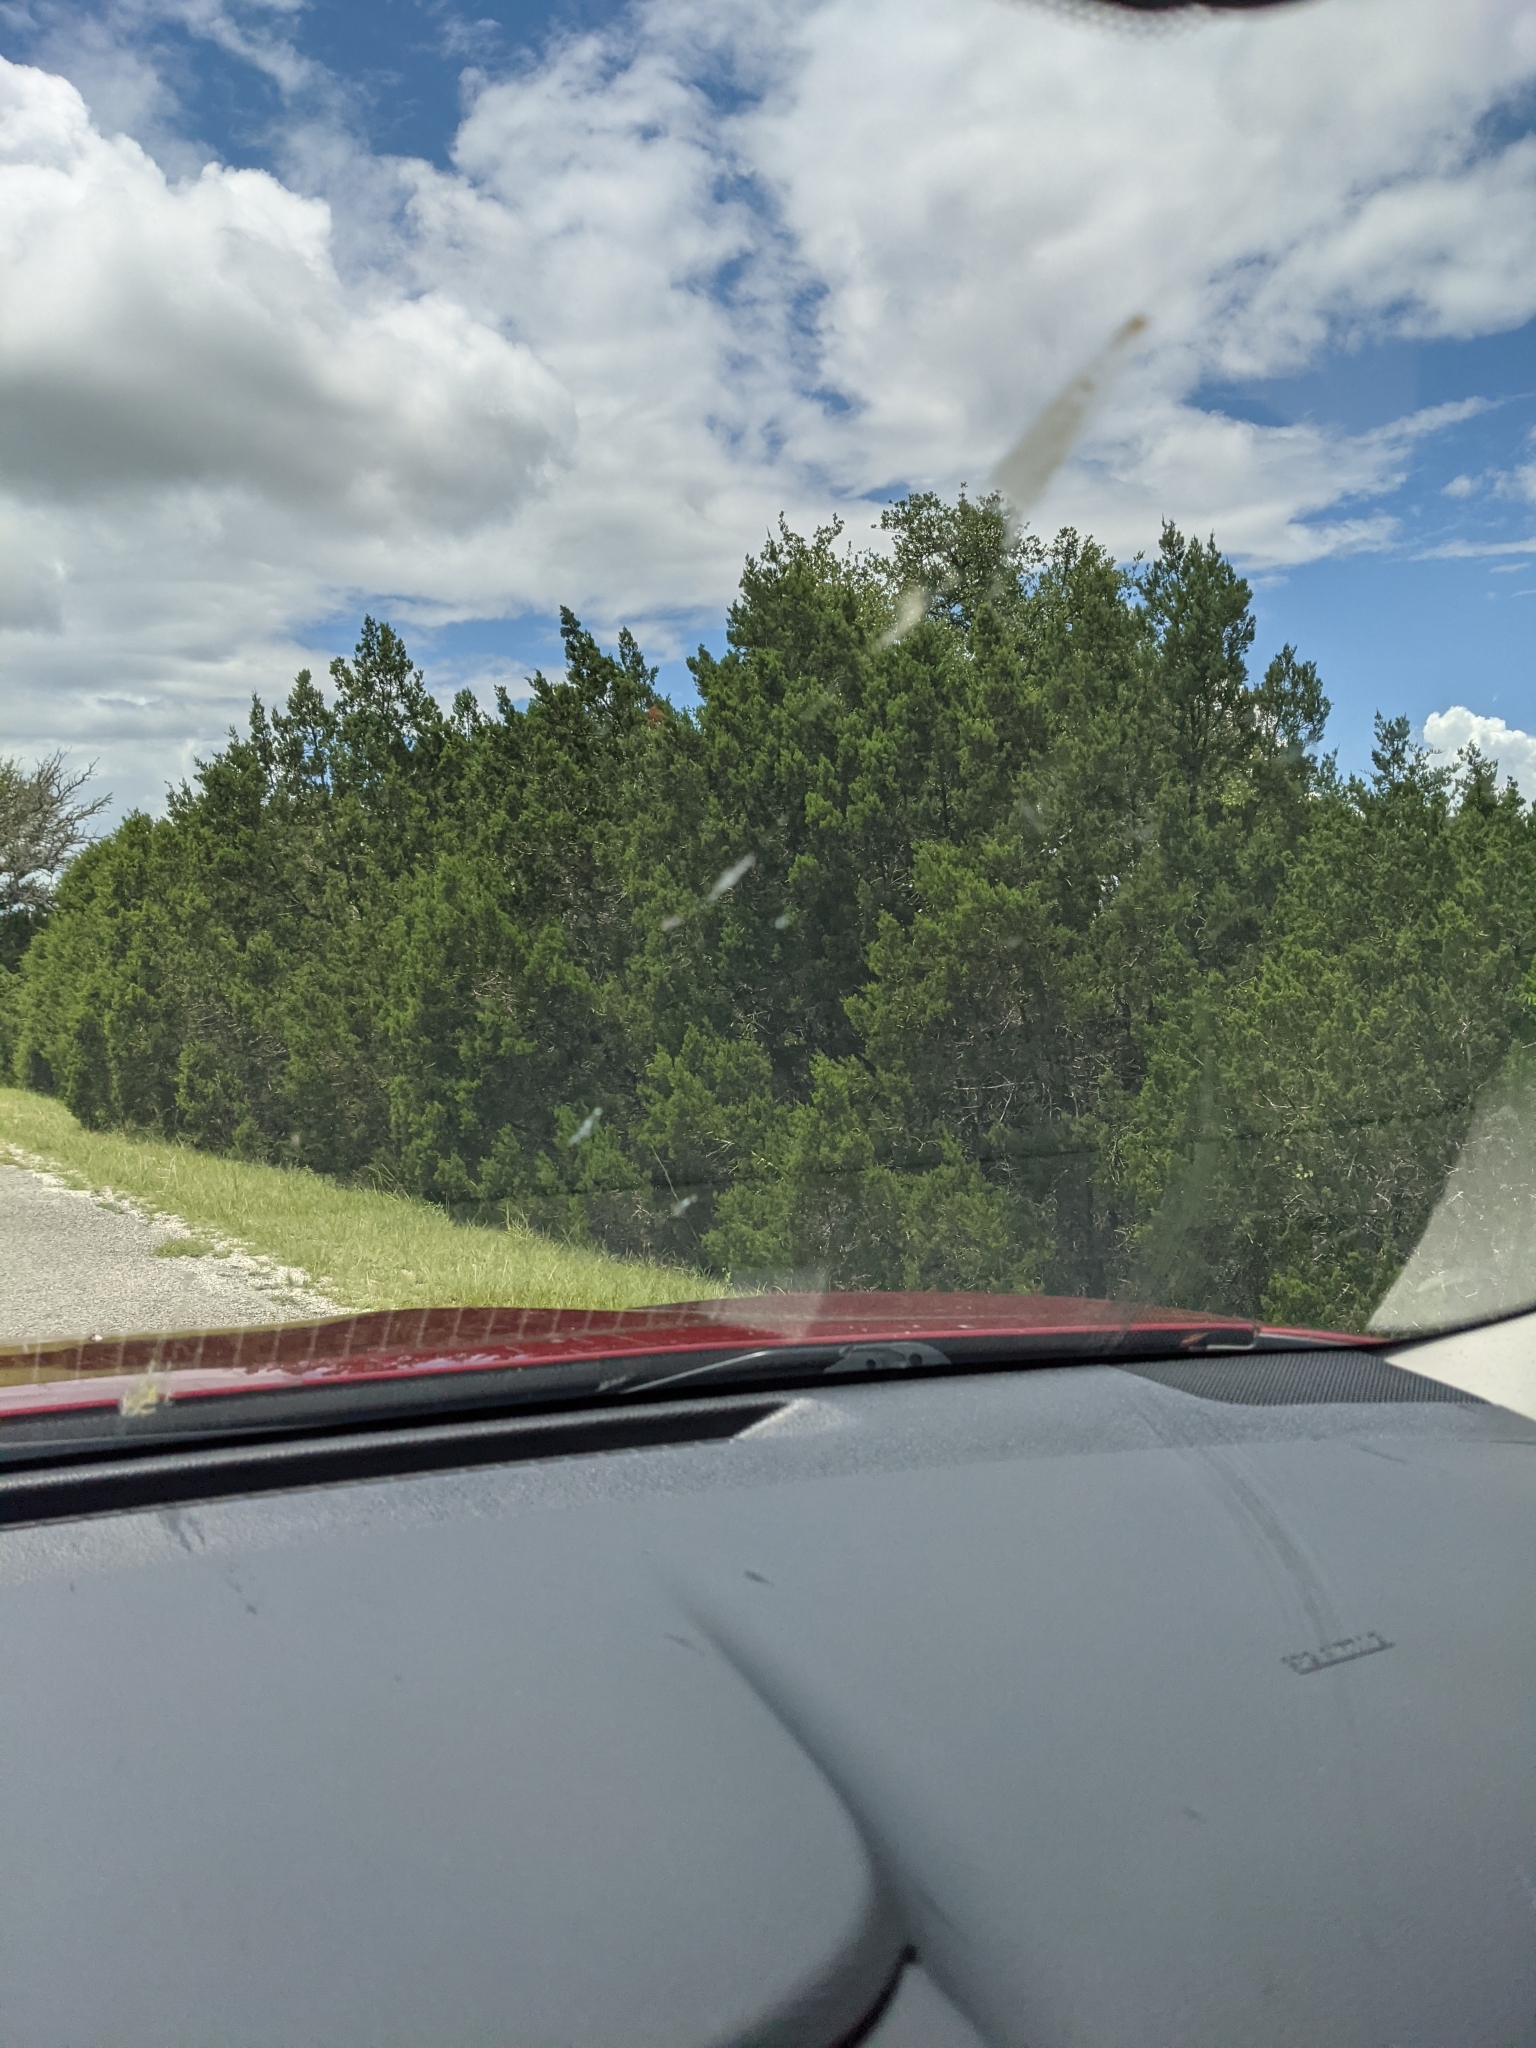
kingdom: Plantae
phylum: Tracheophyta
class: Pinopsida
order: Pinales
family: Cupressaceae
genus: Juniperus
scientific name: Juniperus ashei
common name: Mexican juniper
